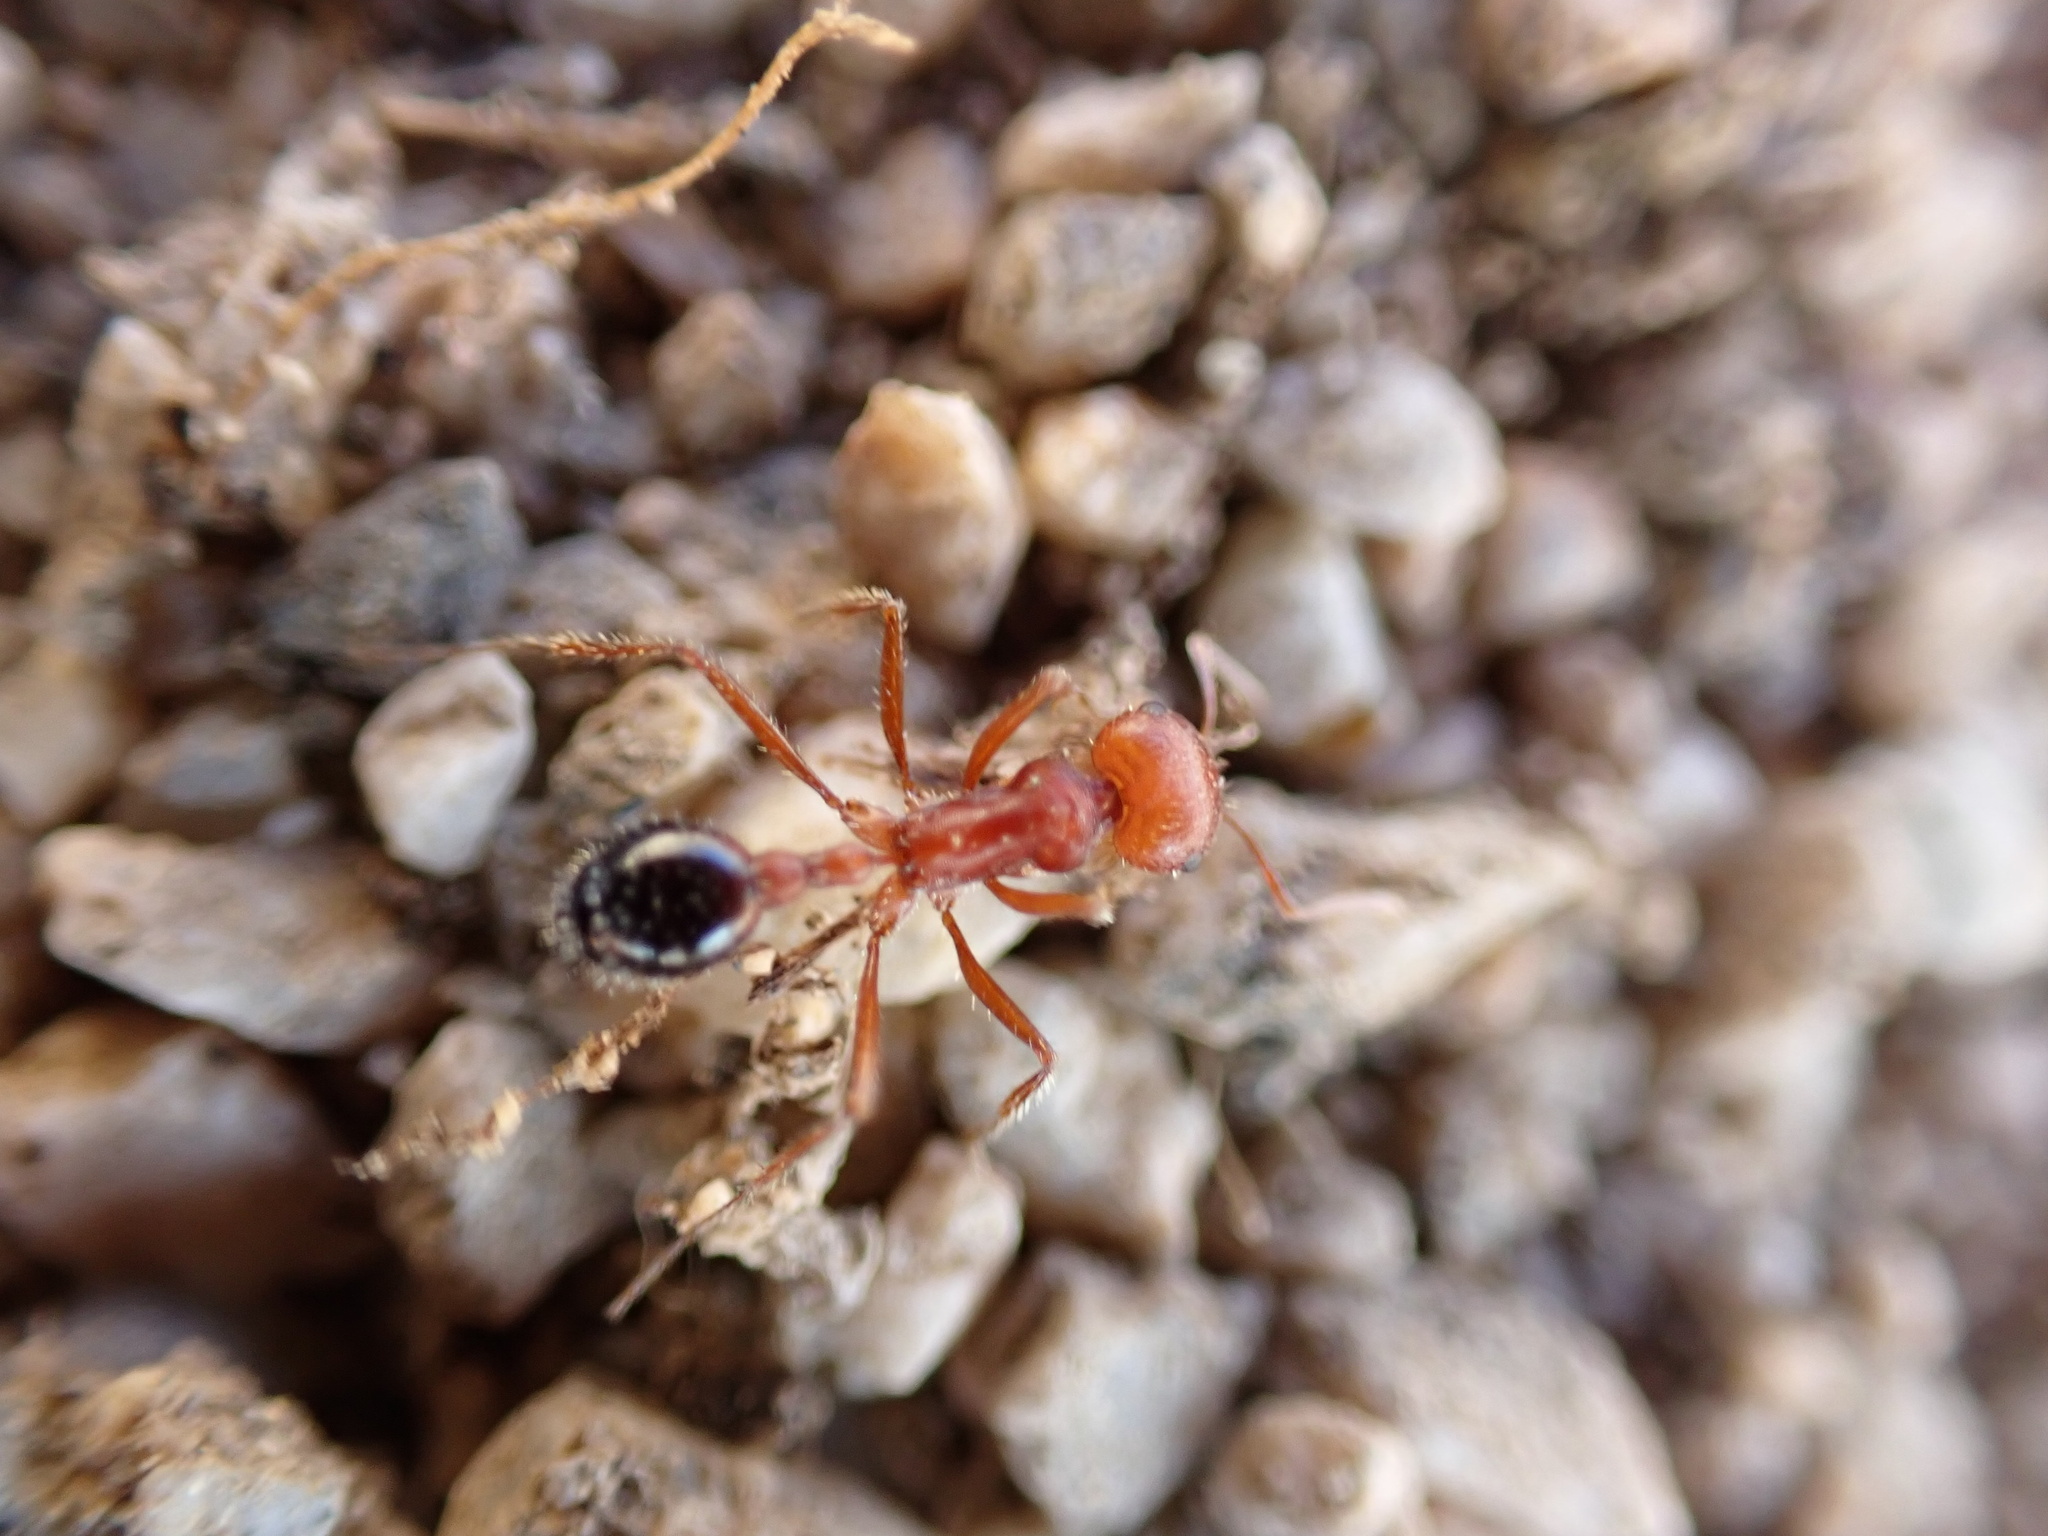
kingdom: Animalia
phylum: Arthropoda
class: Insecta
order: Hymenoptera
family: Formicidae
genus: Pogonomyrmex
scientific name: Pogonomyrmex californicus
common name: California harvester ant
